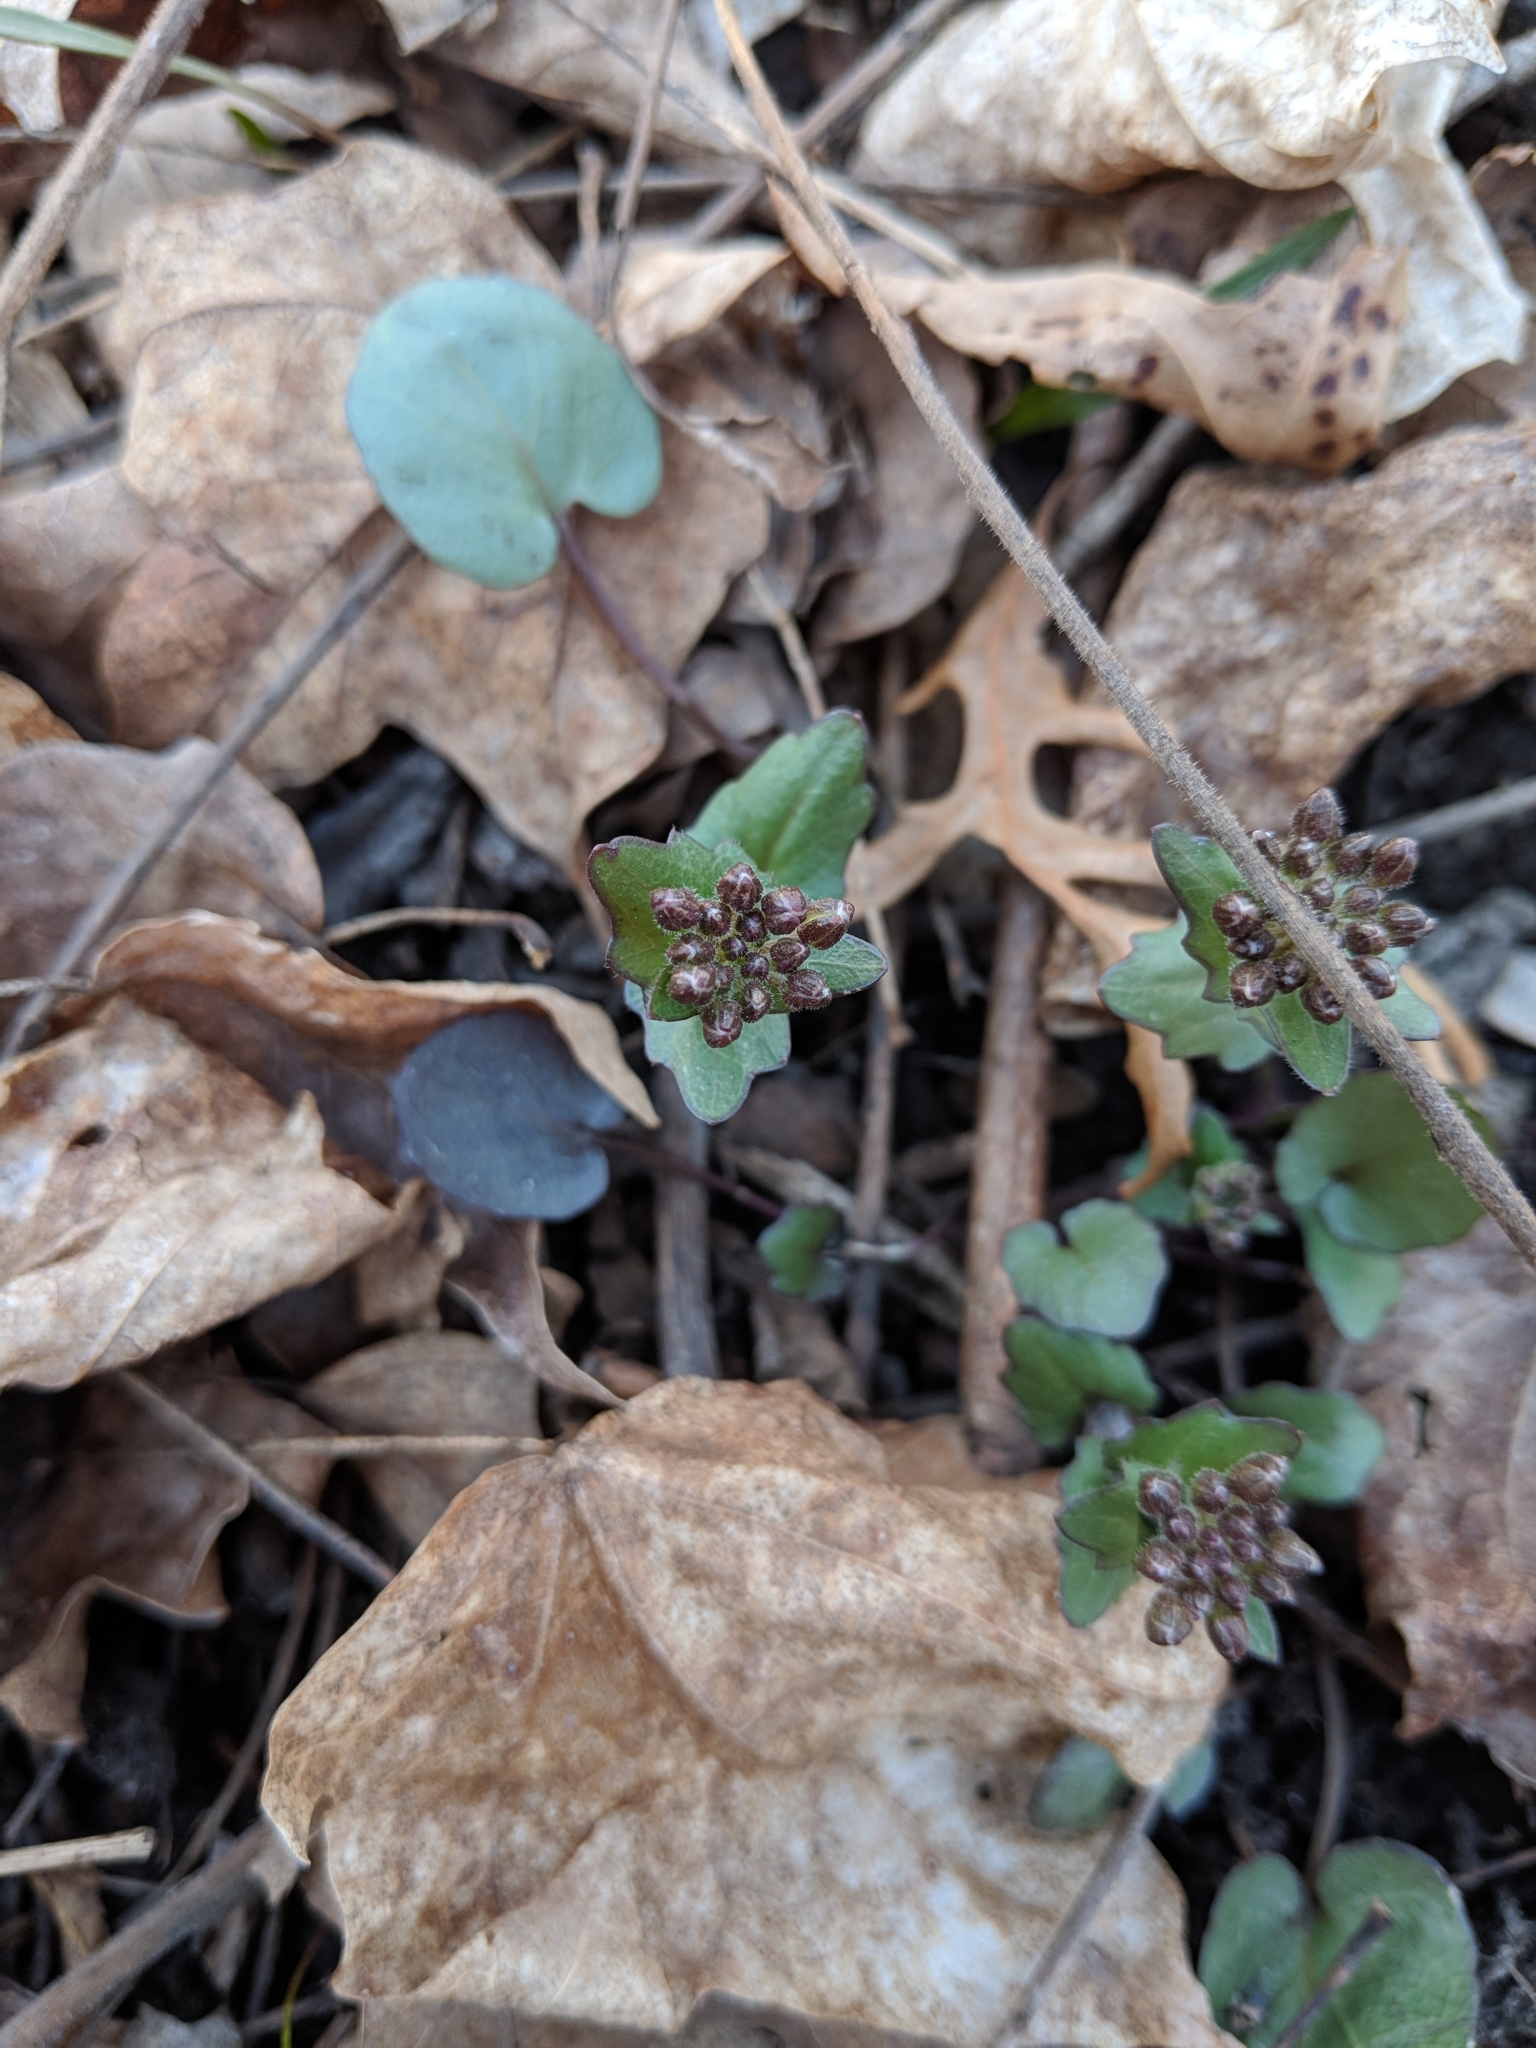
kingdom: Plantae
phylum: Tracheophyta
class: Magnoliopsida
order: Brassicales
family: Brassicaceae
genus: Cardamine
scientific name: Cardamine douglassii
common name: Purple cress
